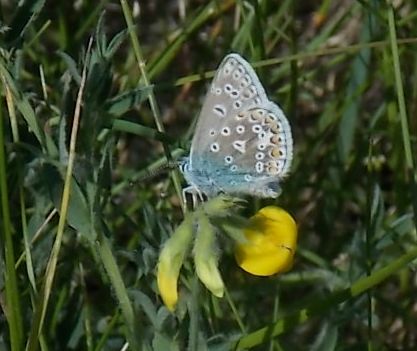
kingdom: Animalia
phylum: Arthropoda
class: Insecta
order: Lepidoptera
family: Lycaenidae
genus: Polyommatus
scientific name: Polyommatus icarus
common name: Common blue
